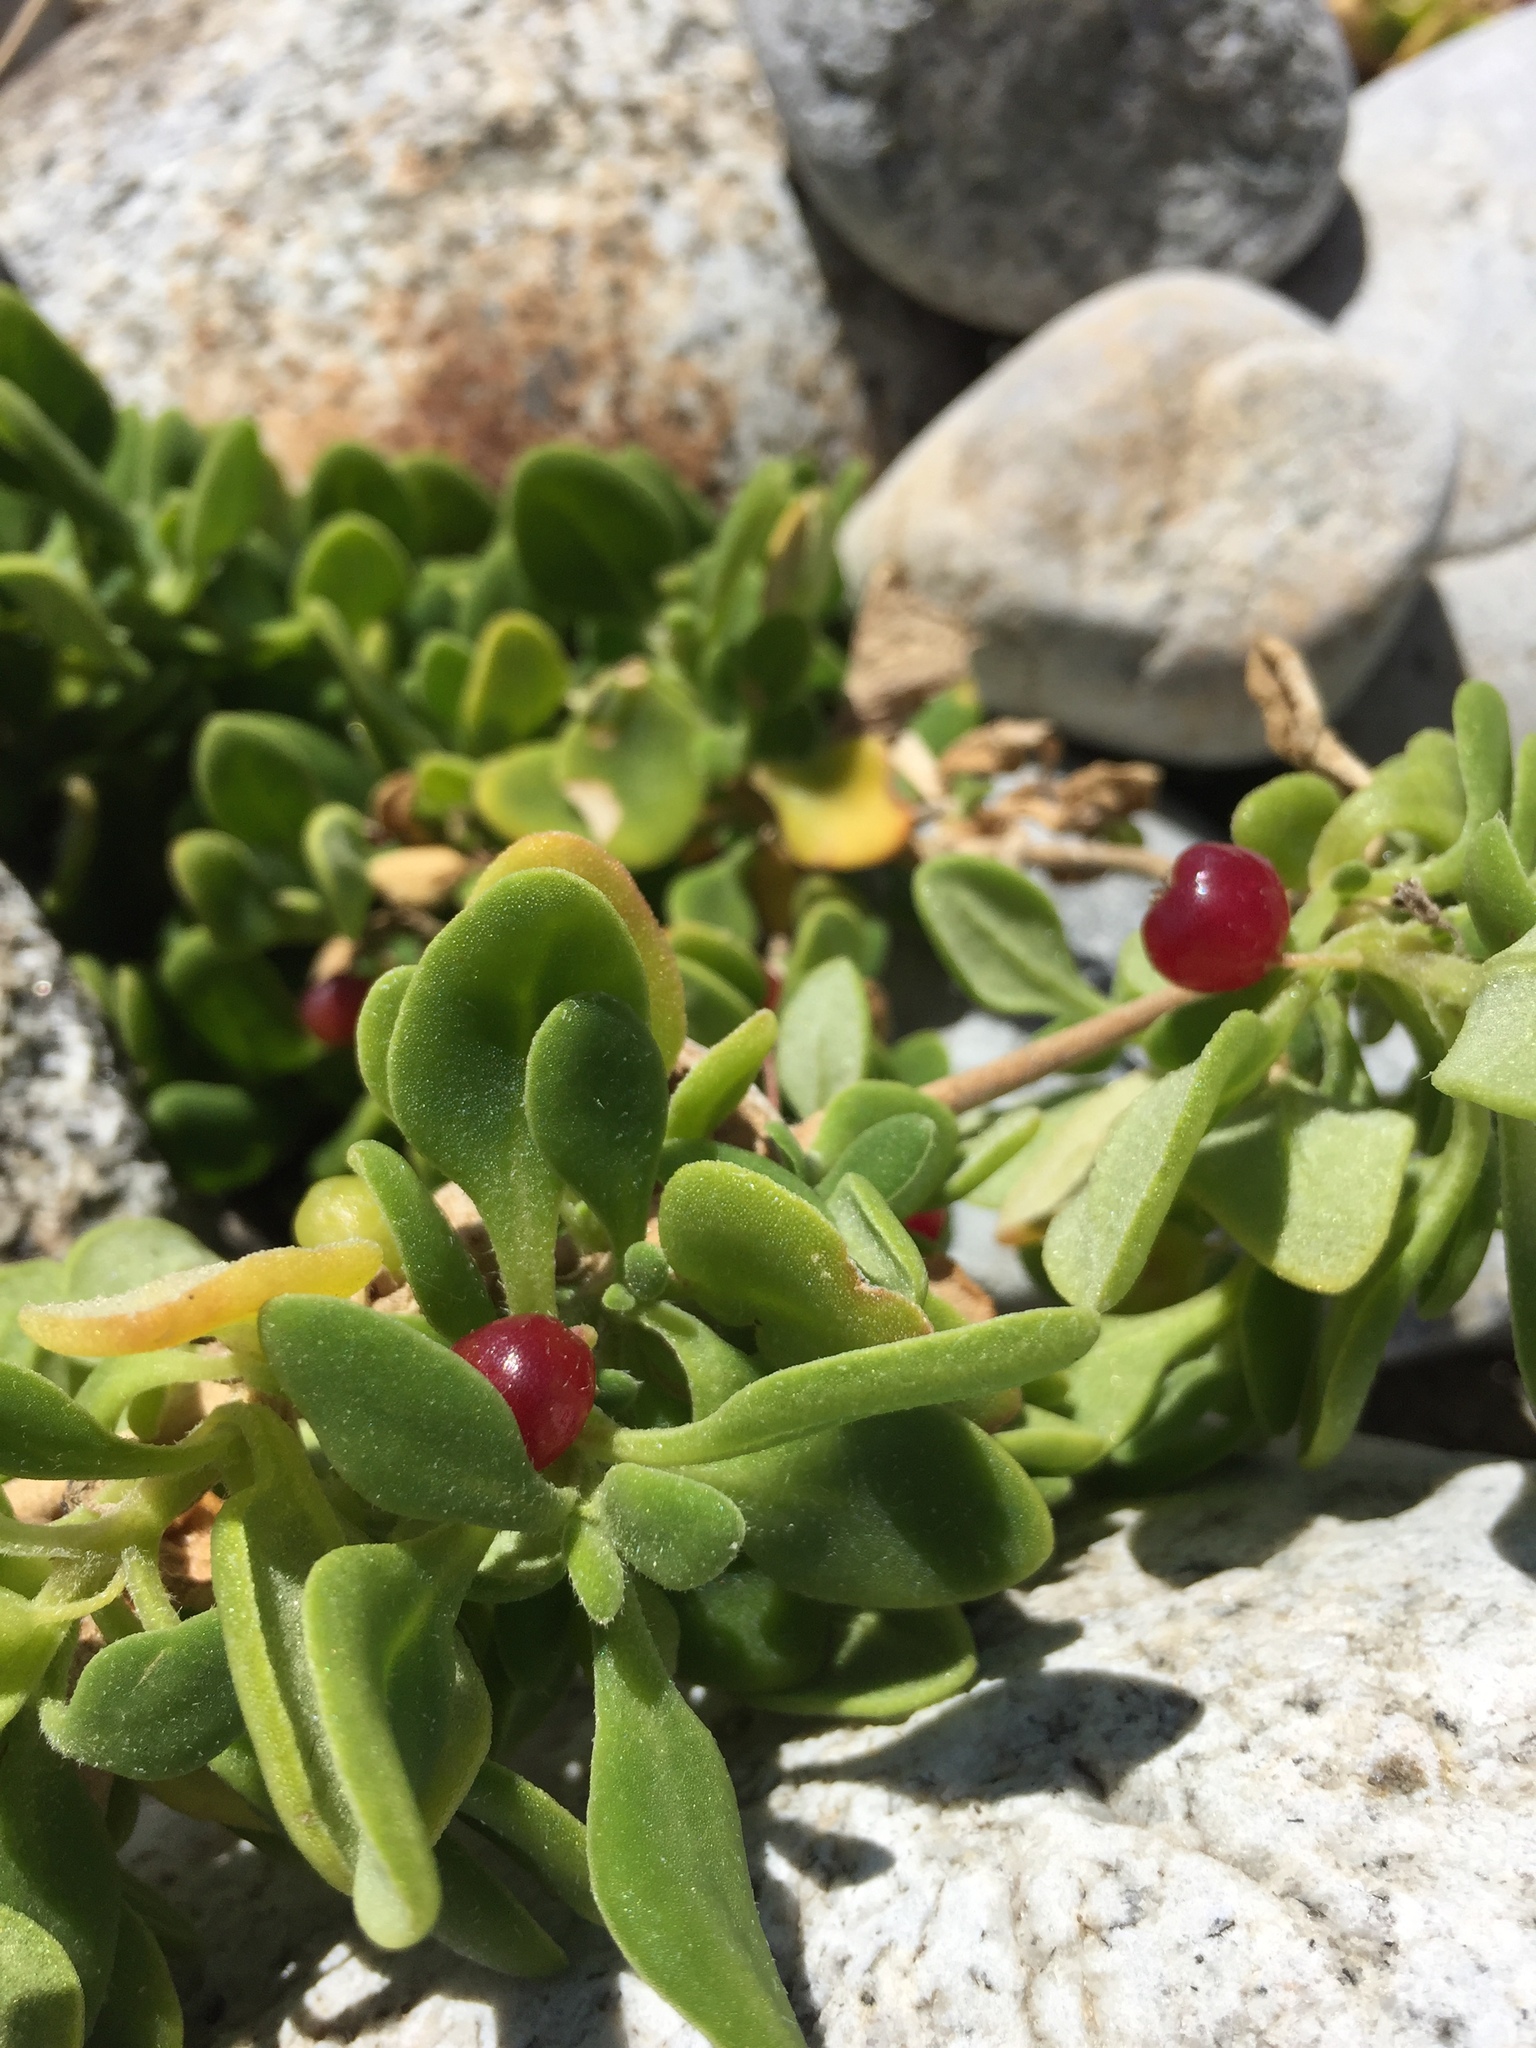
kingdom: Plantae
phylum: Tracheophyta
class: Magnoliopsida
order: Caryophyllales
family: Aizoaceae
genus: Tetragonia
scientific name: Tetragonia implexicoma
